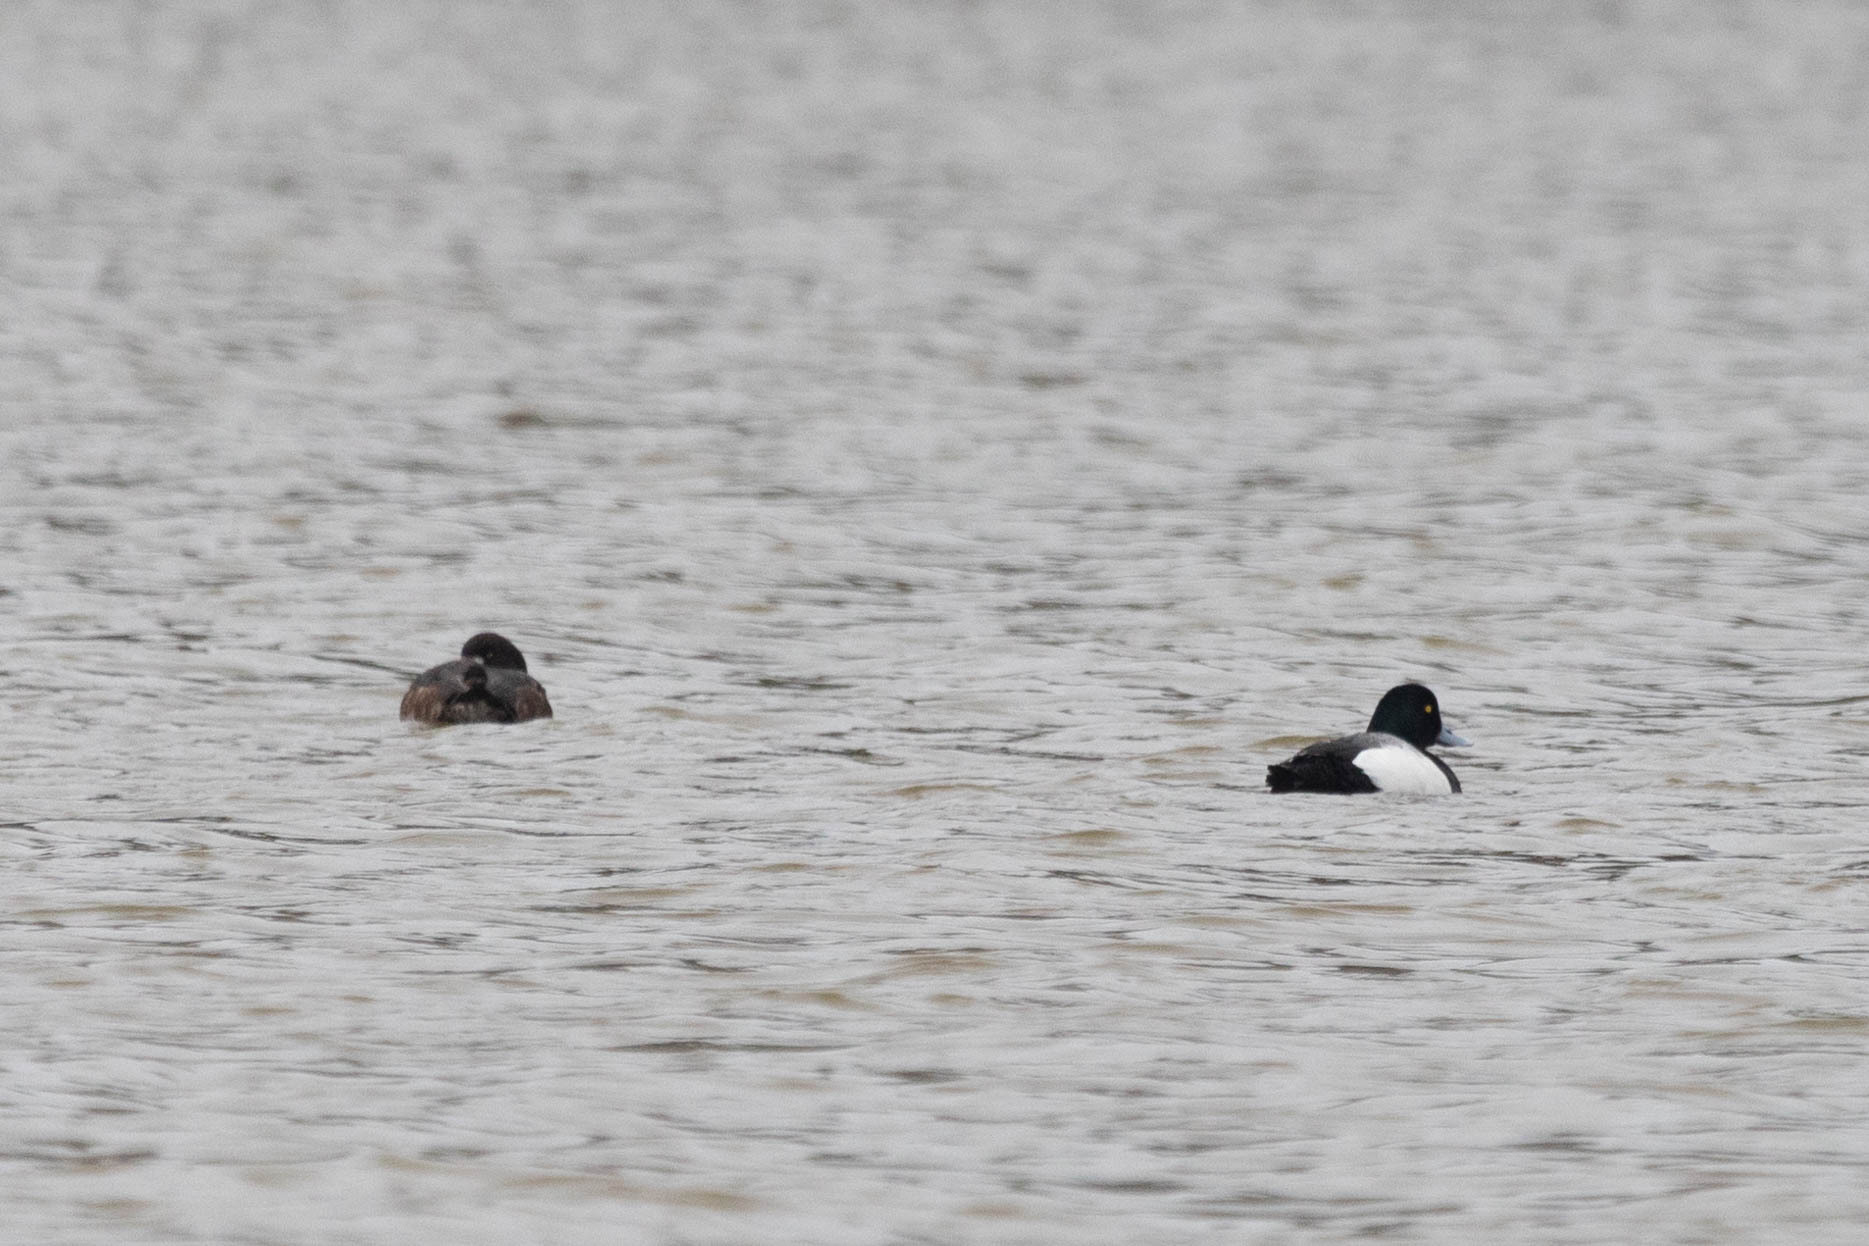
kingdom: Animalia
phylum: Chordata
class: Aves
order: Anseriformes
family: Anatidae
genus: Aythya
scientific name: Aythya marila
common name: Greater scaup
